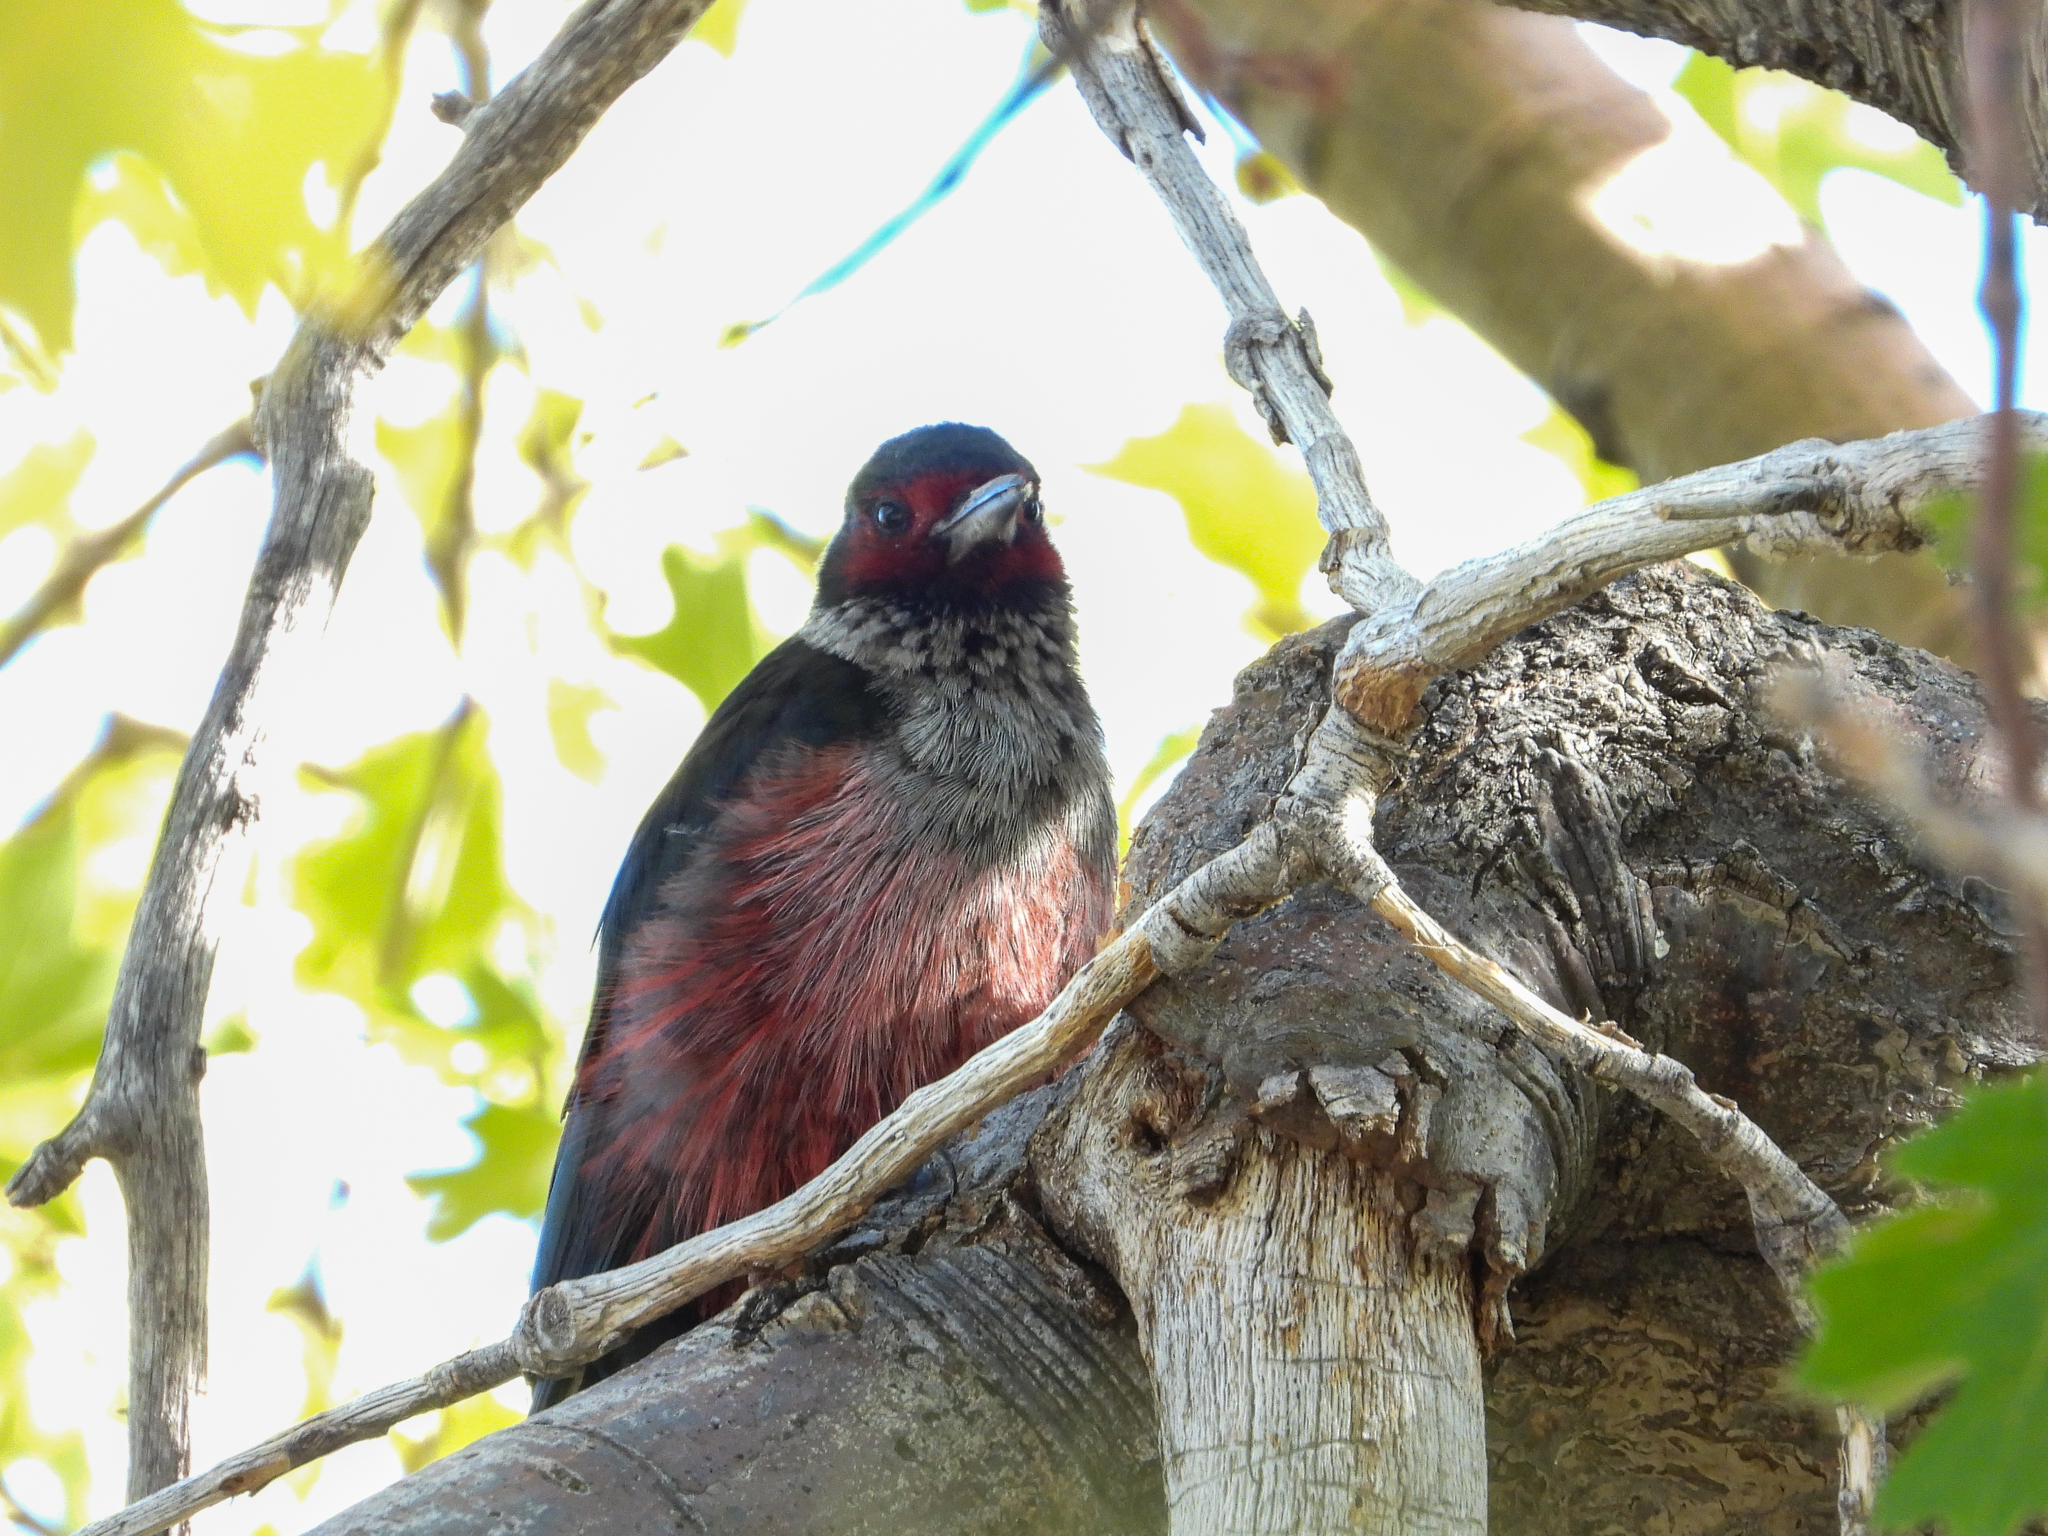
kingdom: Animalia
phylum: Chordata
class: Aves
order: Piciformes
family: Picidae
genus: Melanerpes
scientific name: Melanerpes lewis
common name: Lewis's woodpecker
